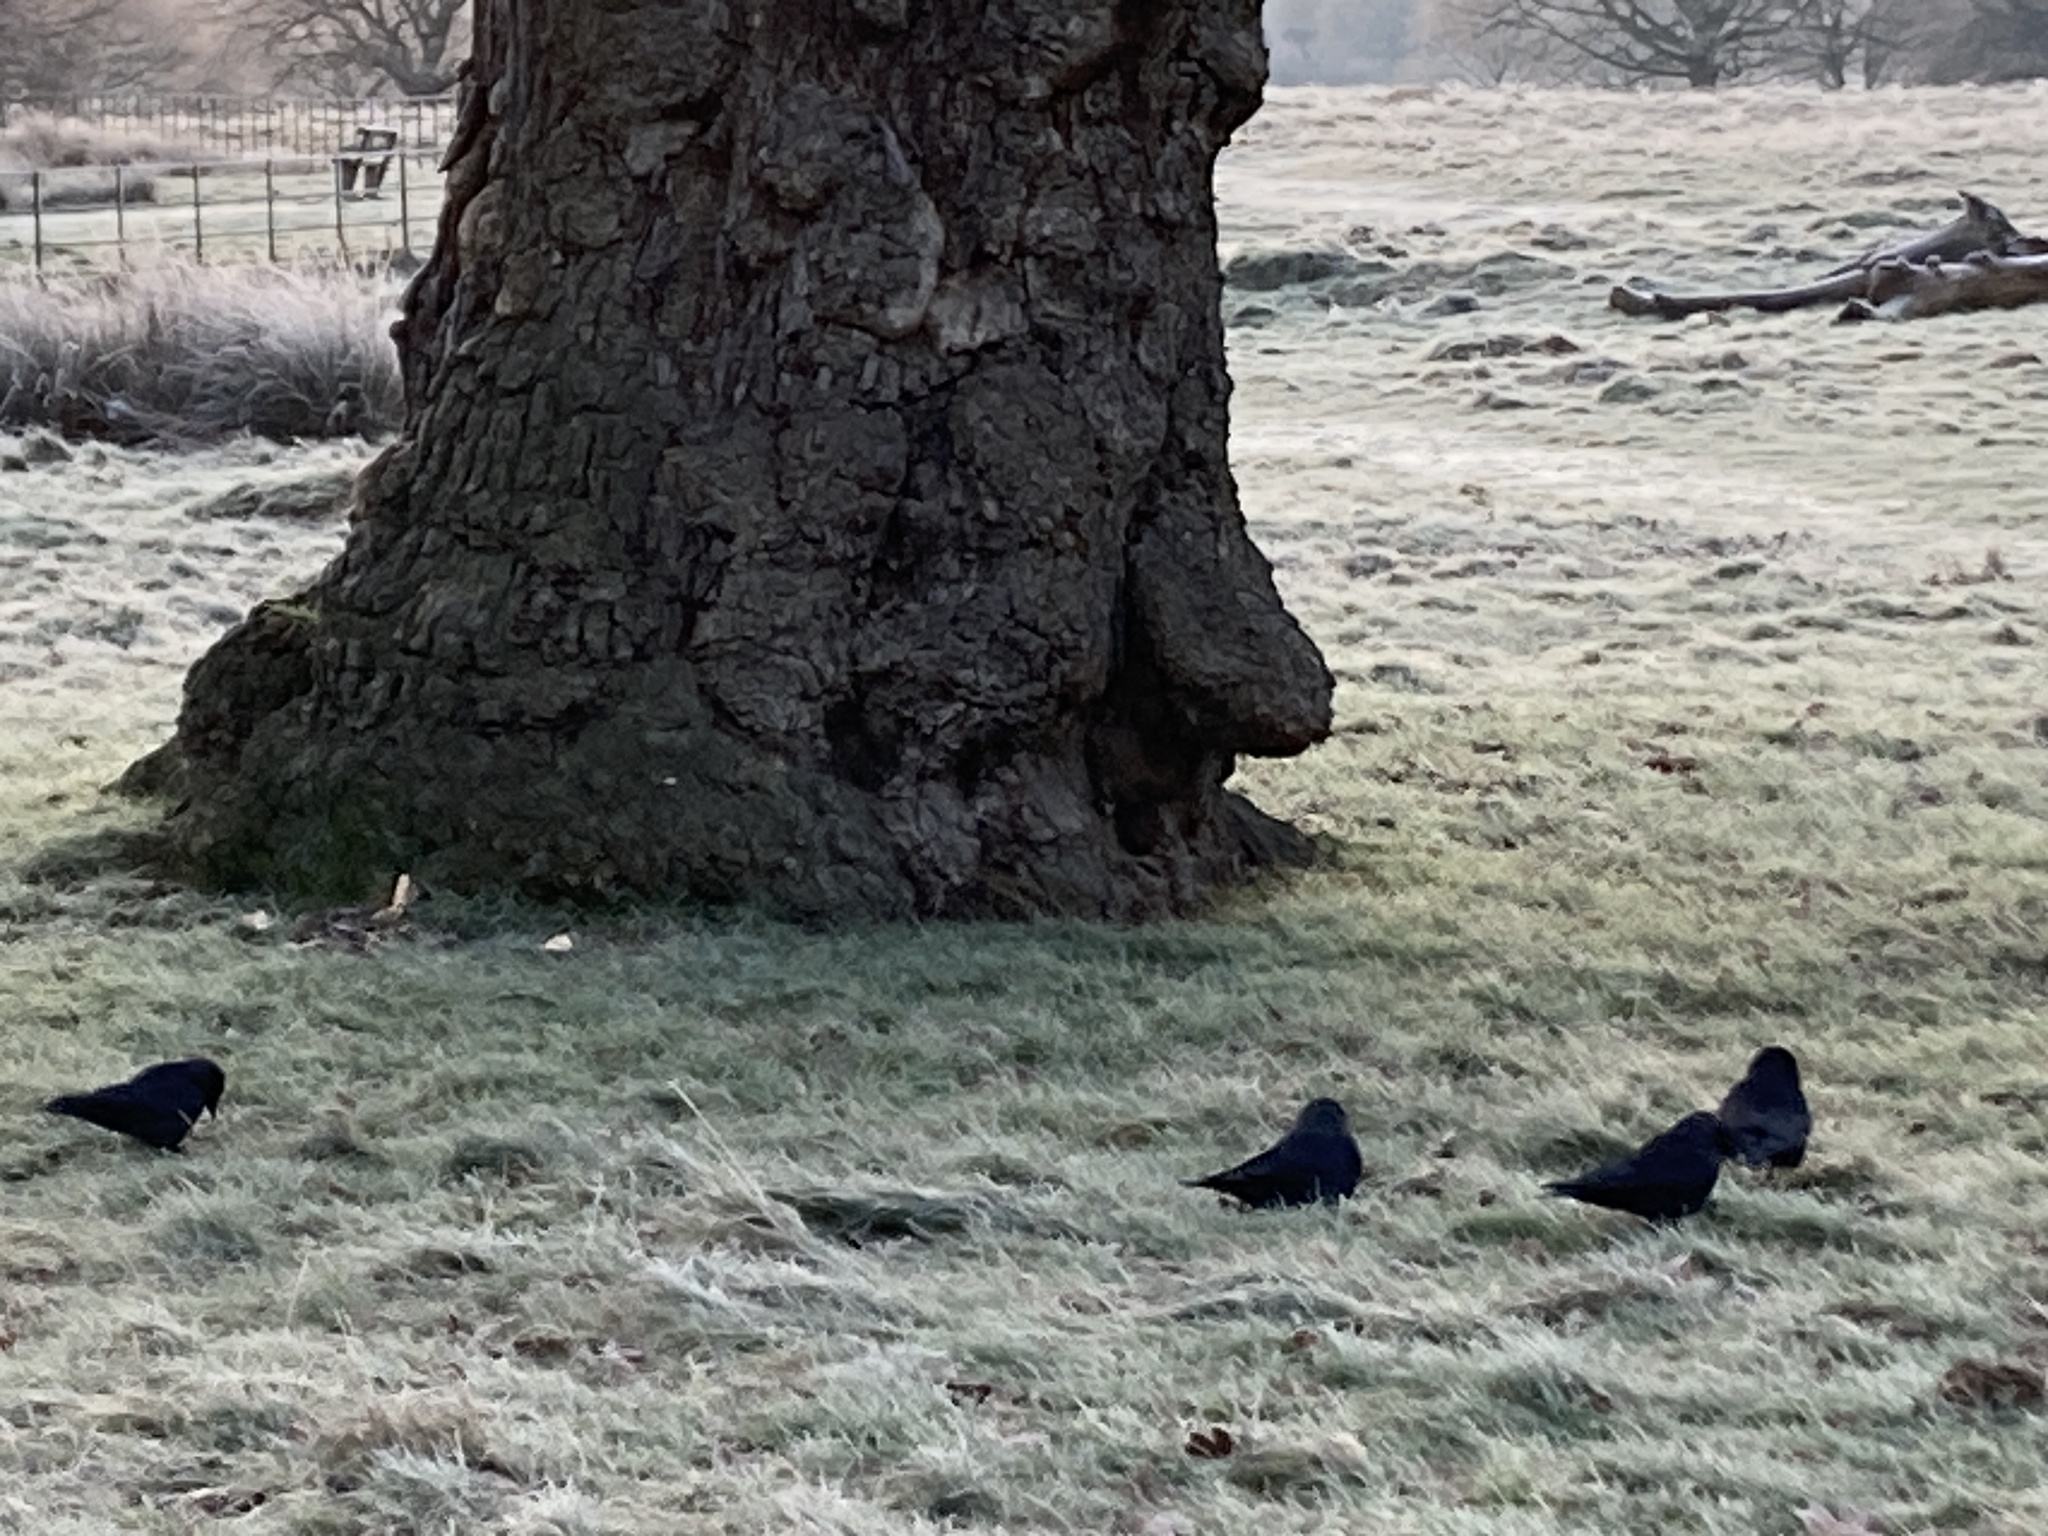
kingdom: Animalia
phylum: Chordata
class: Aves
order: Passeriformes
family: Corvidae
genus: Coloeus
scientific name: Coloeus monedula
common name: Western jackdaw
